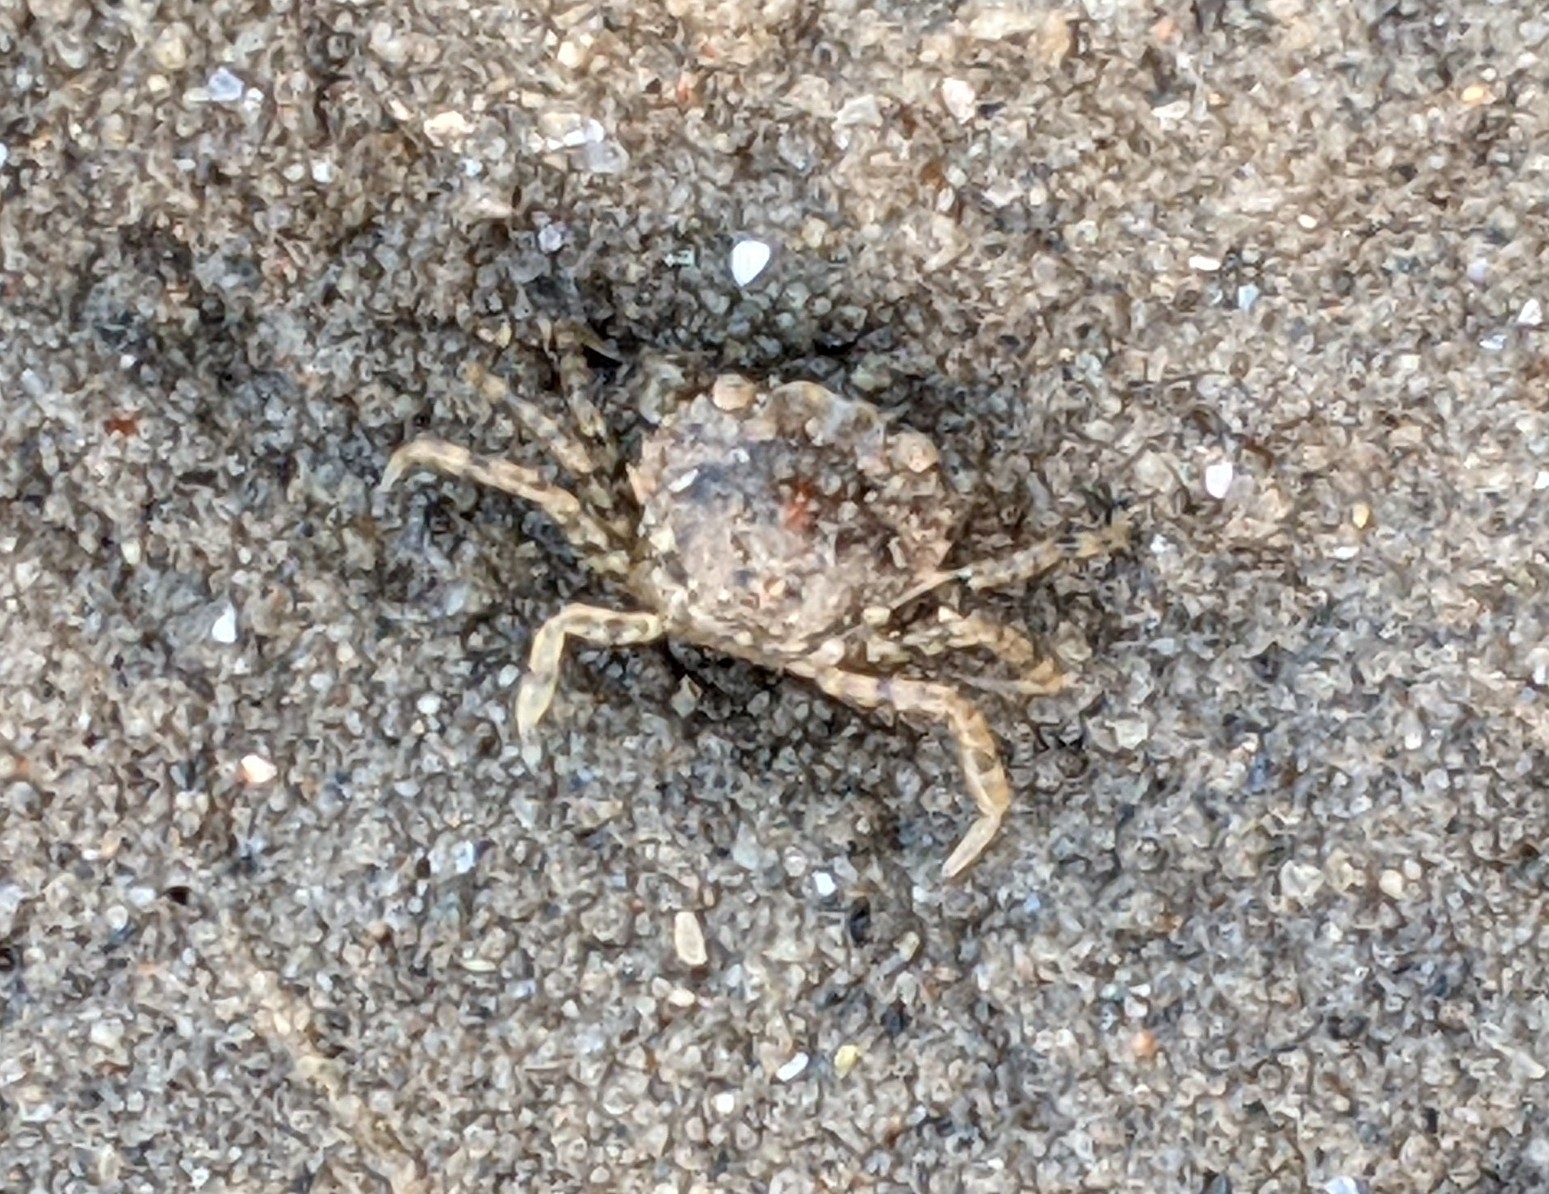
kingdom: Animalia
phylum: Arthropoda
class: Malacostraca
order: Decapoda
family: Carcinidae
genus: Carcinus
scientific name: Carcinus maenas
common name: European green crab
